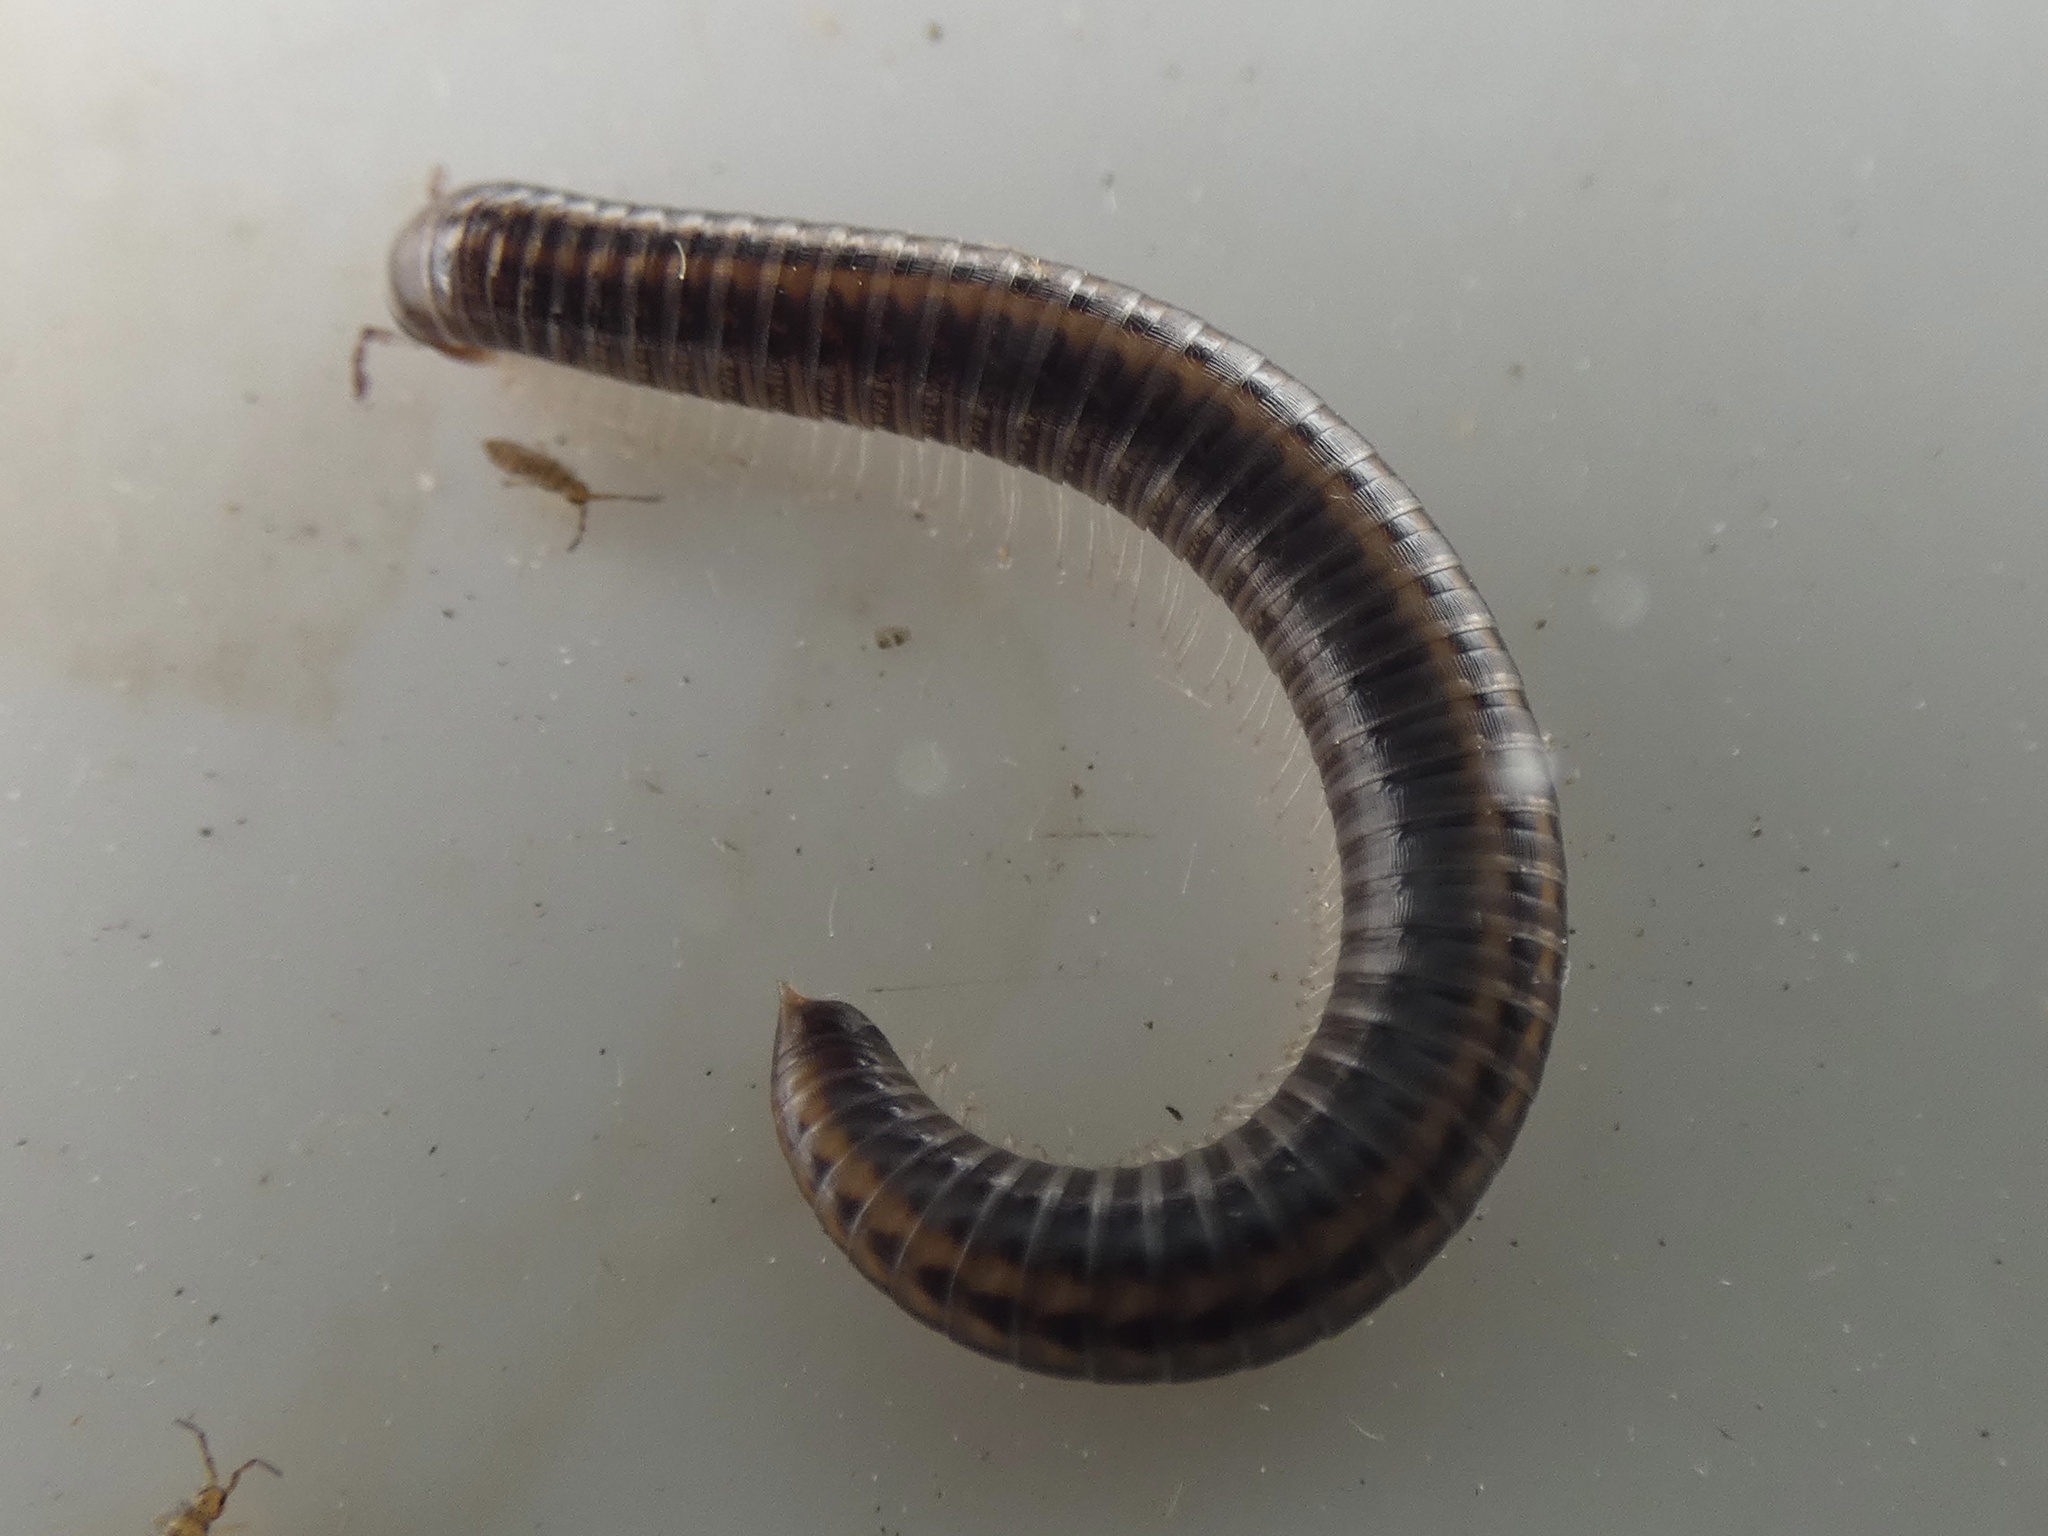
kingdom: Animalia
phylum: Arthropoda
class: Diplopoda
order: Julida
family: Julidae
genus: Ommatoiulus
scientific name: Ommatoiulus sabulosus
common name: Striped millipede
